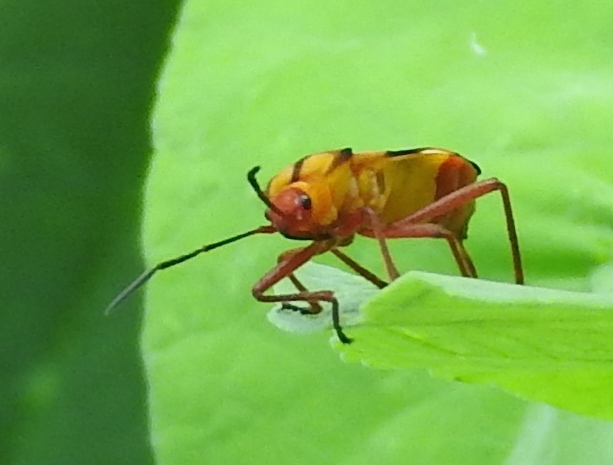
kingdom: Animalia
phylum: Arthropoda
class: Insecta
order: Hemiptera
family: Lygaeidae
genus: Oncopeltus
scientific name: Oncopeltus guttaloides
